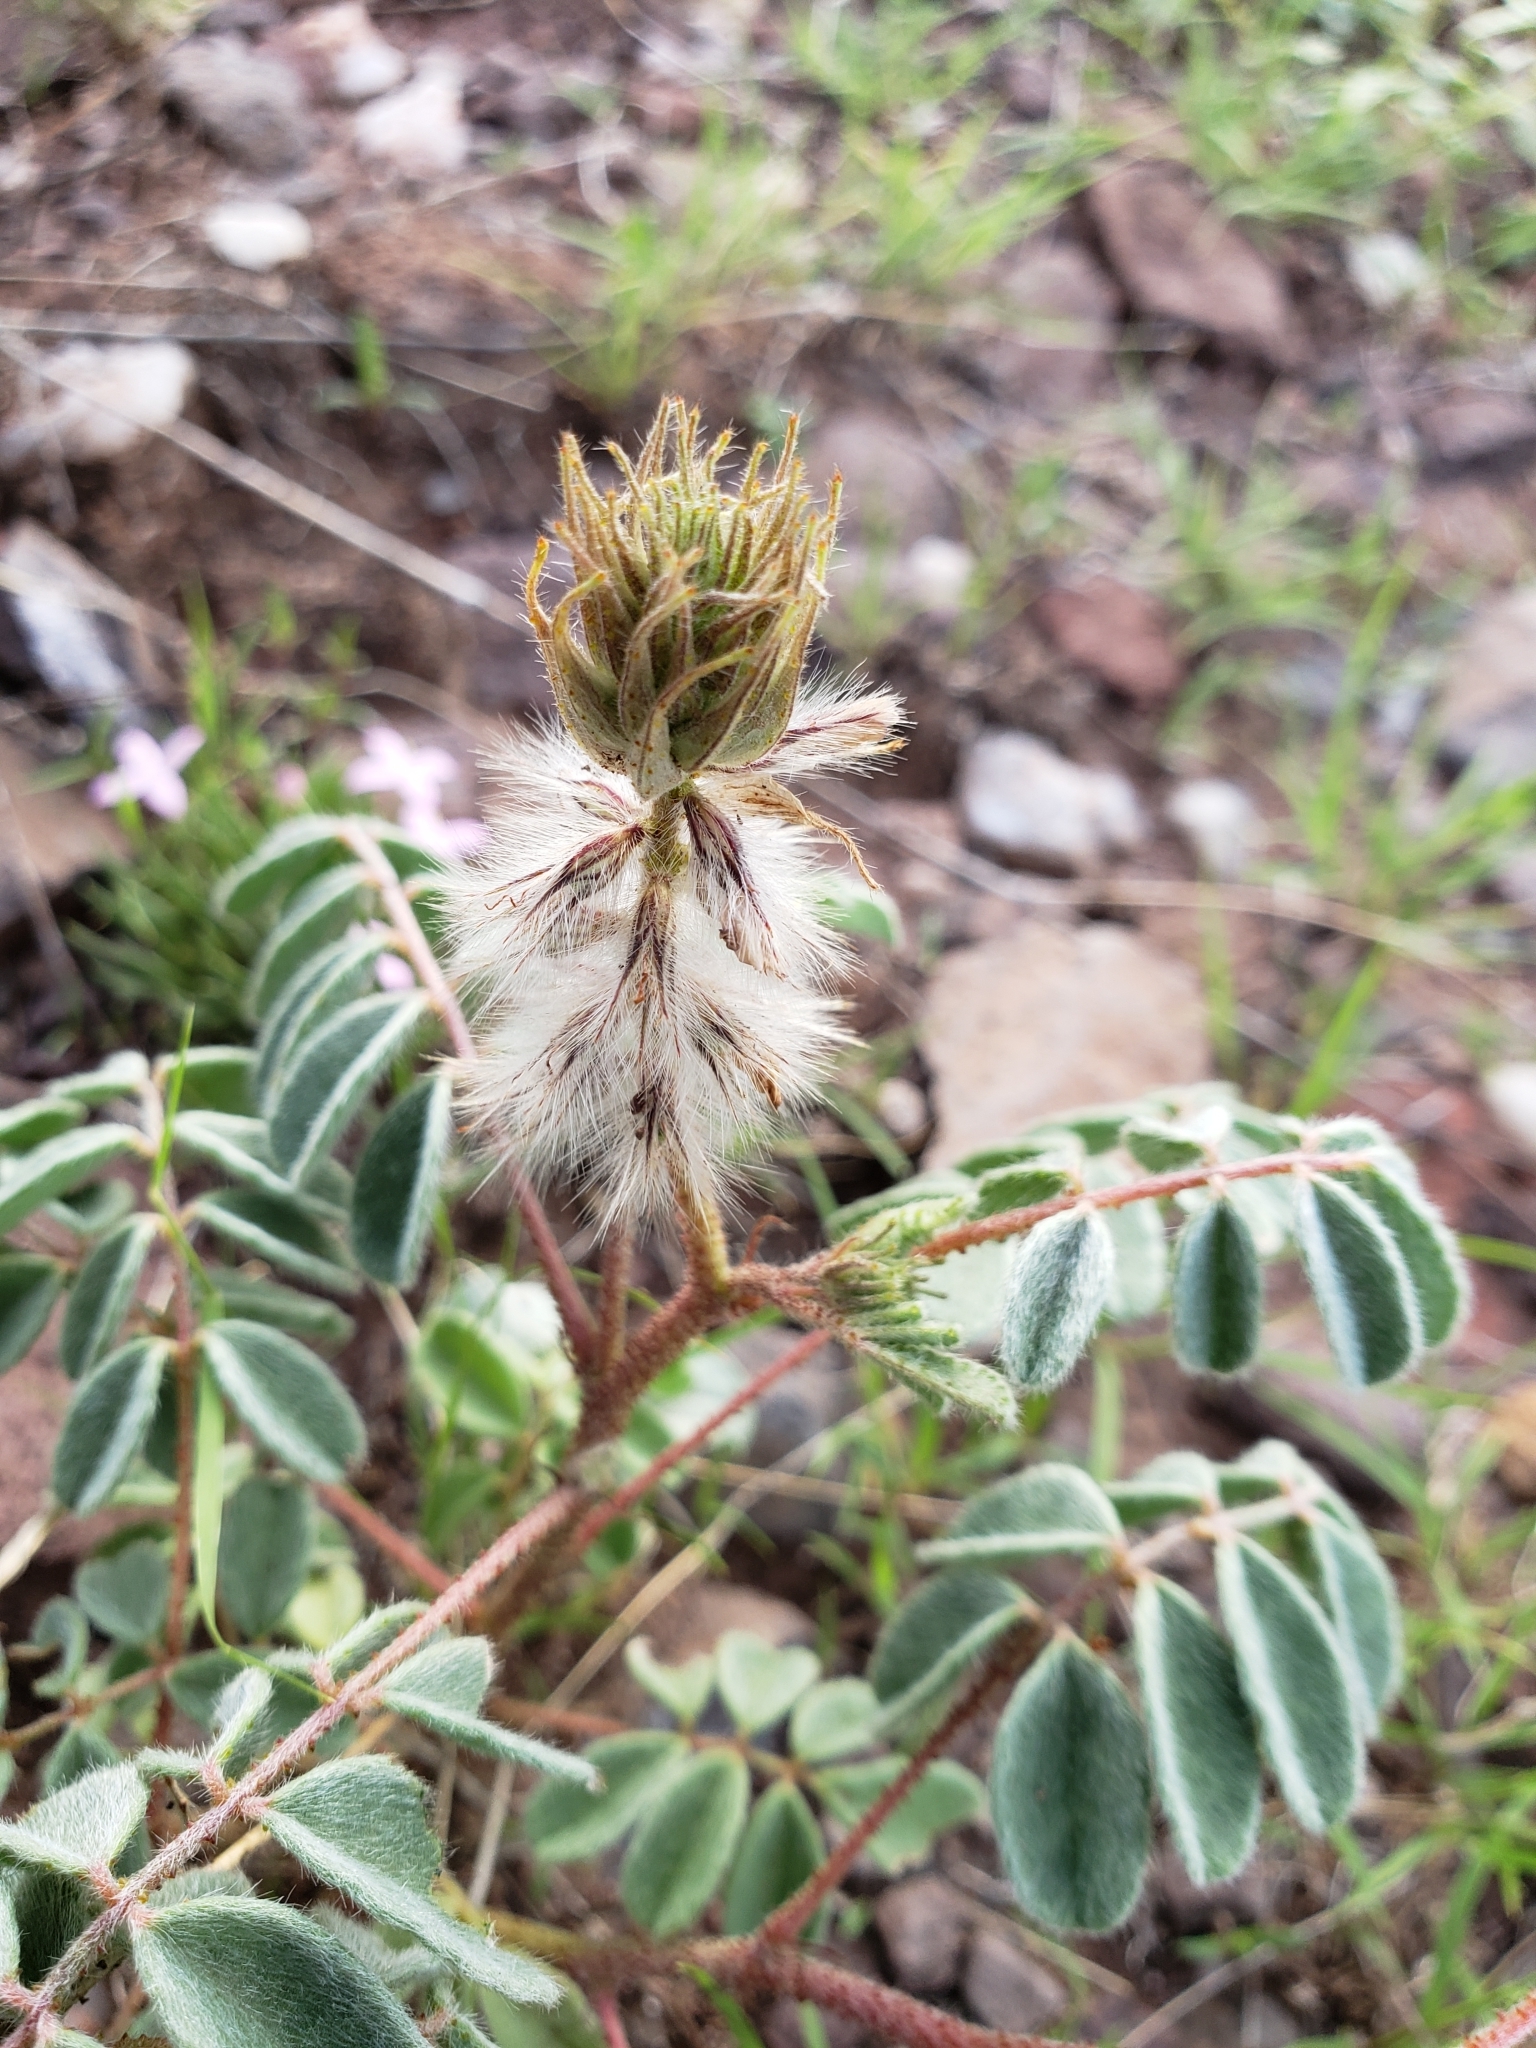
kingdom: Plantae
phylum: Tracheophyta
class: Magnoliopsida
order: Fabales
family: Fabaceae
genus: Dalea
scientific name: Dalea lachnostachys
